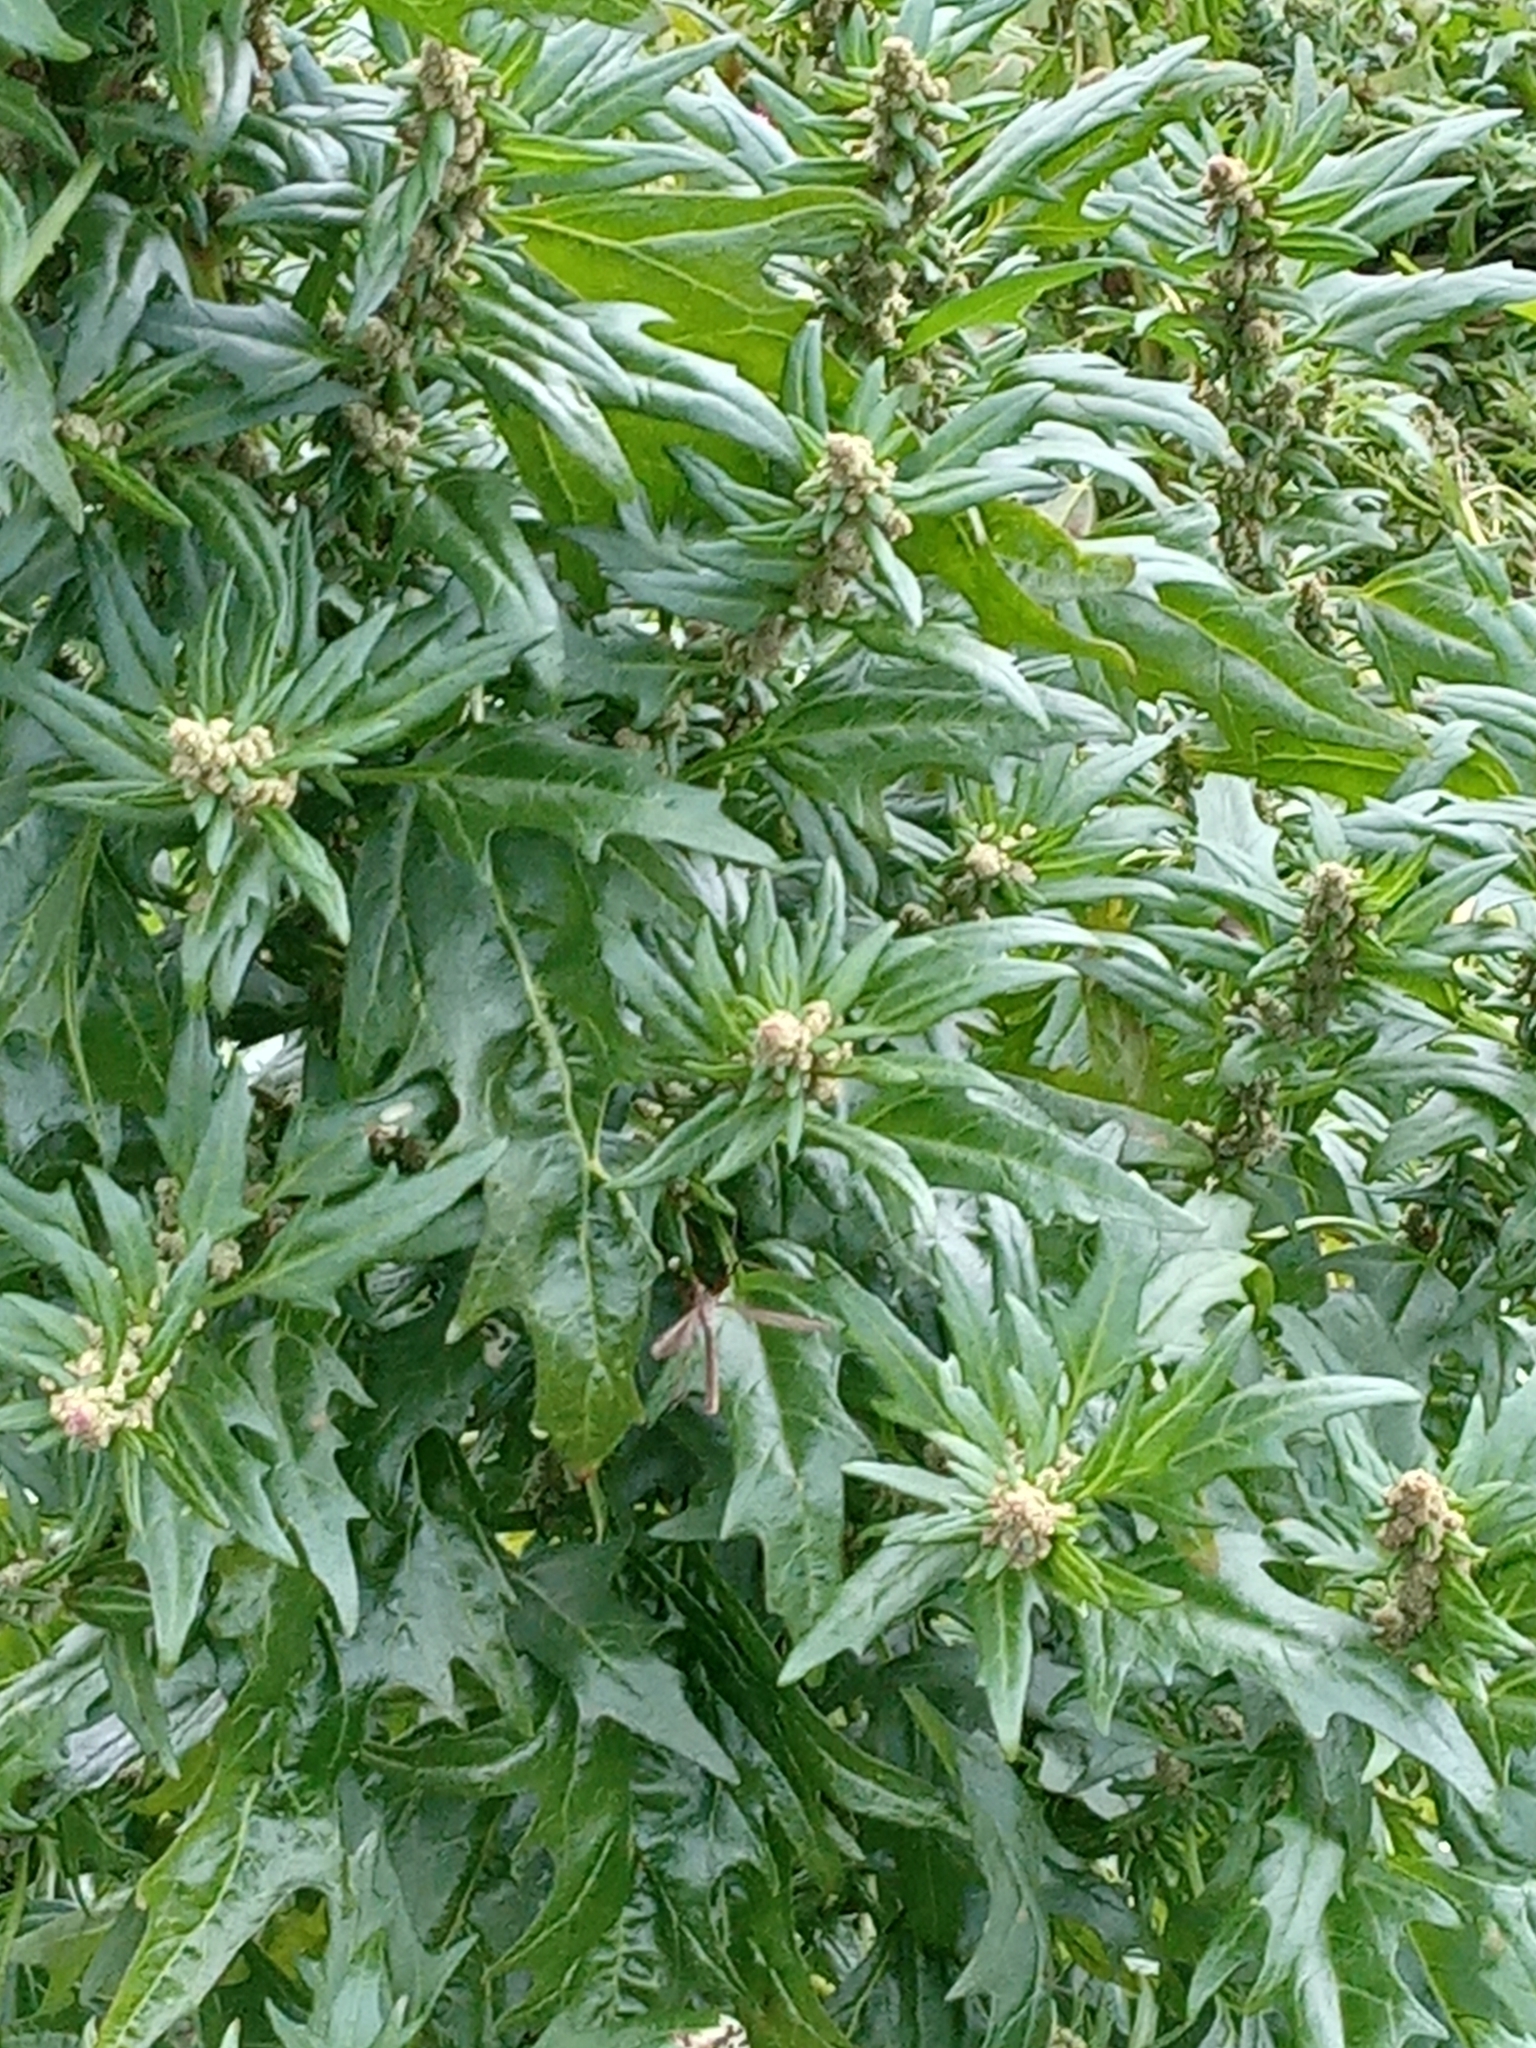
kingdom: Plantae
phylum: Tracheophyta
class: Magnoliopsida
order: Caryophyllales
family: Amaranthaceae
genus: Oxybasis
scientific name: Oxybasis rubra
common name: Red goosefoot
